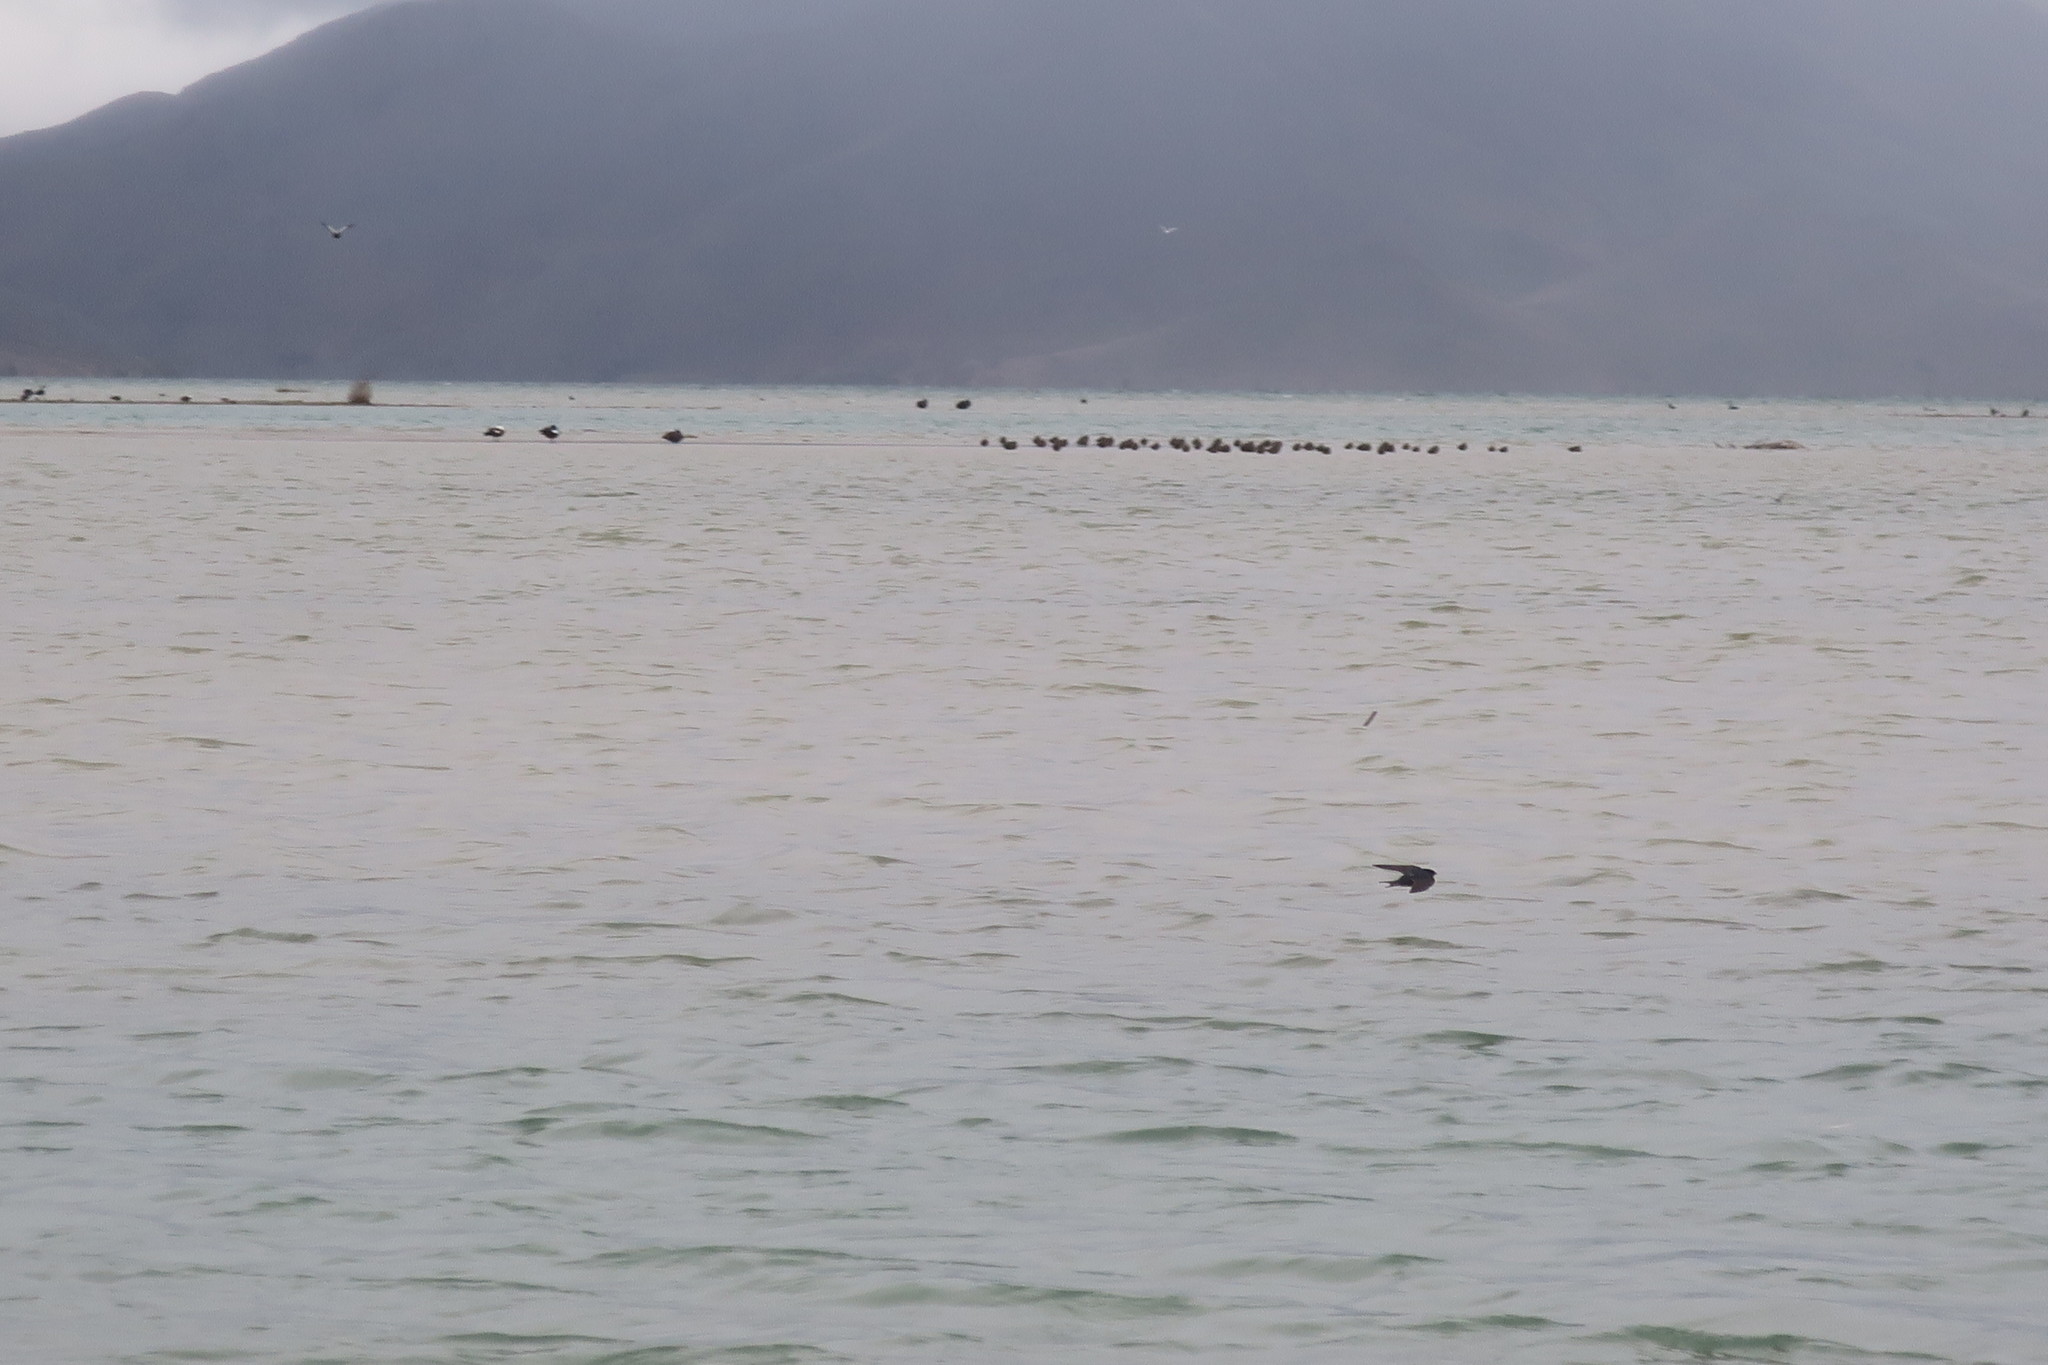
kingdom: Animalia
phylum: Chordata
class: Aves
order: Passeriformes
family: Hirundinidae
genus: Hirundo
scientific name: Hirundo neoxena
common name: Welcome swallow
